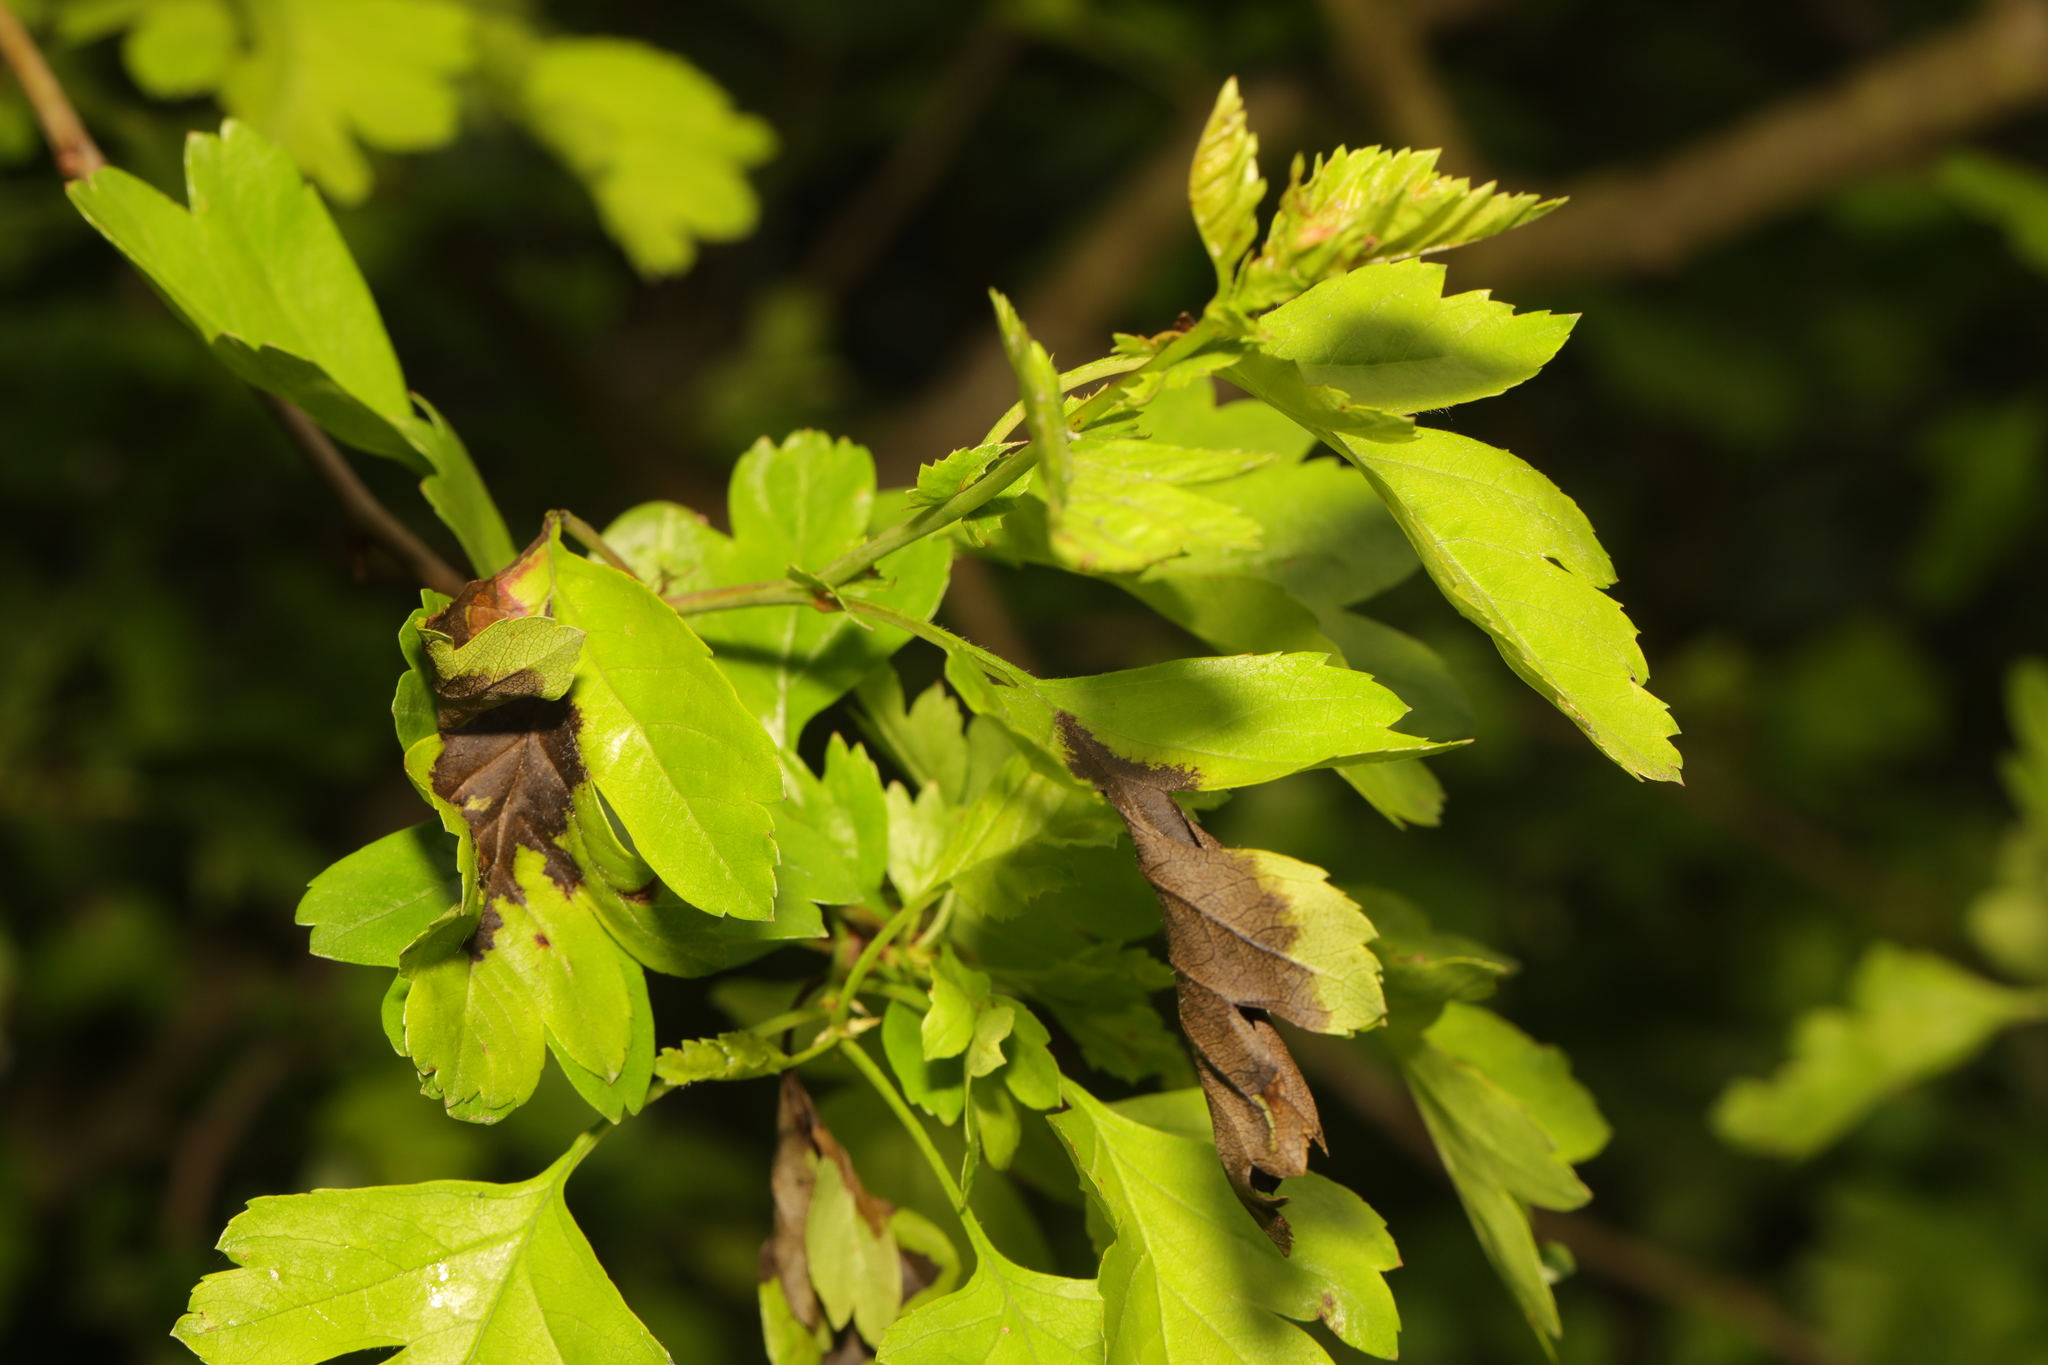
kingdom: Plantae
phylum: Tracheophyta
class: Magnoliopsida
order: Rosales
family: Rosaceae
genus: Crataegus
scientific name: Crataegus monogyna
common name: Hawthorn
